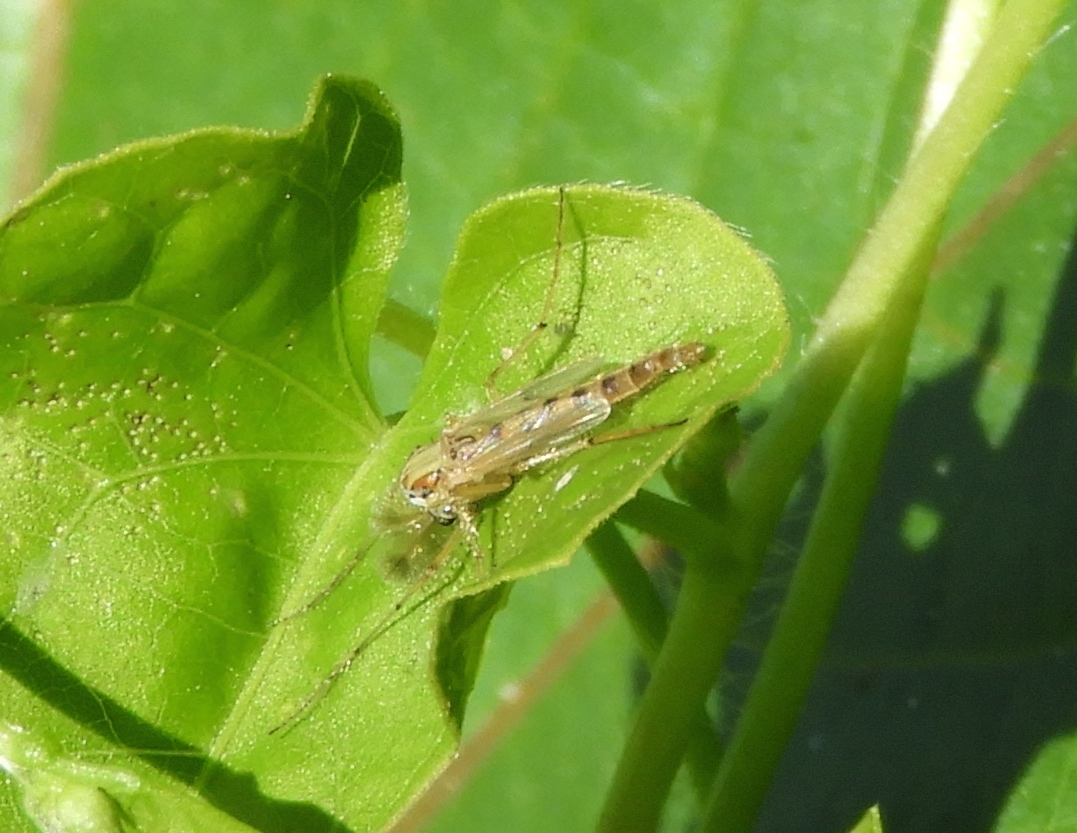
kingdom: Animalia
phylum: Arthropoda
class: Insecta
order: Diptera
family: Chironomidae
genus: Chironomus
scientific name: Chironomus
